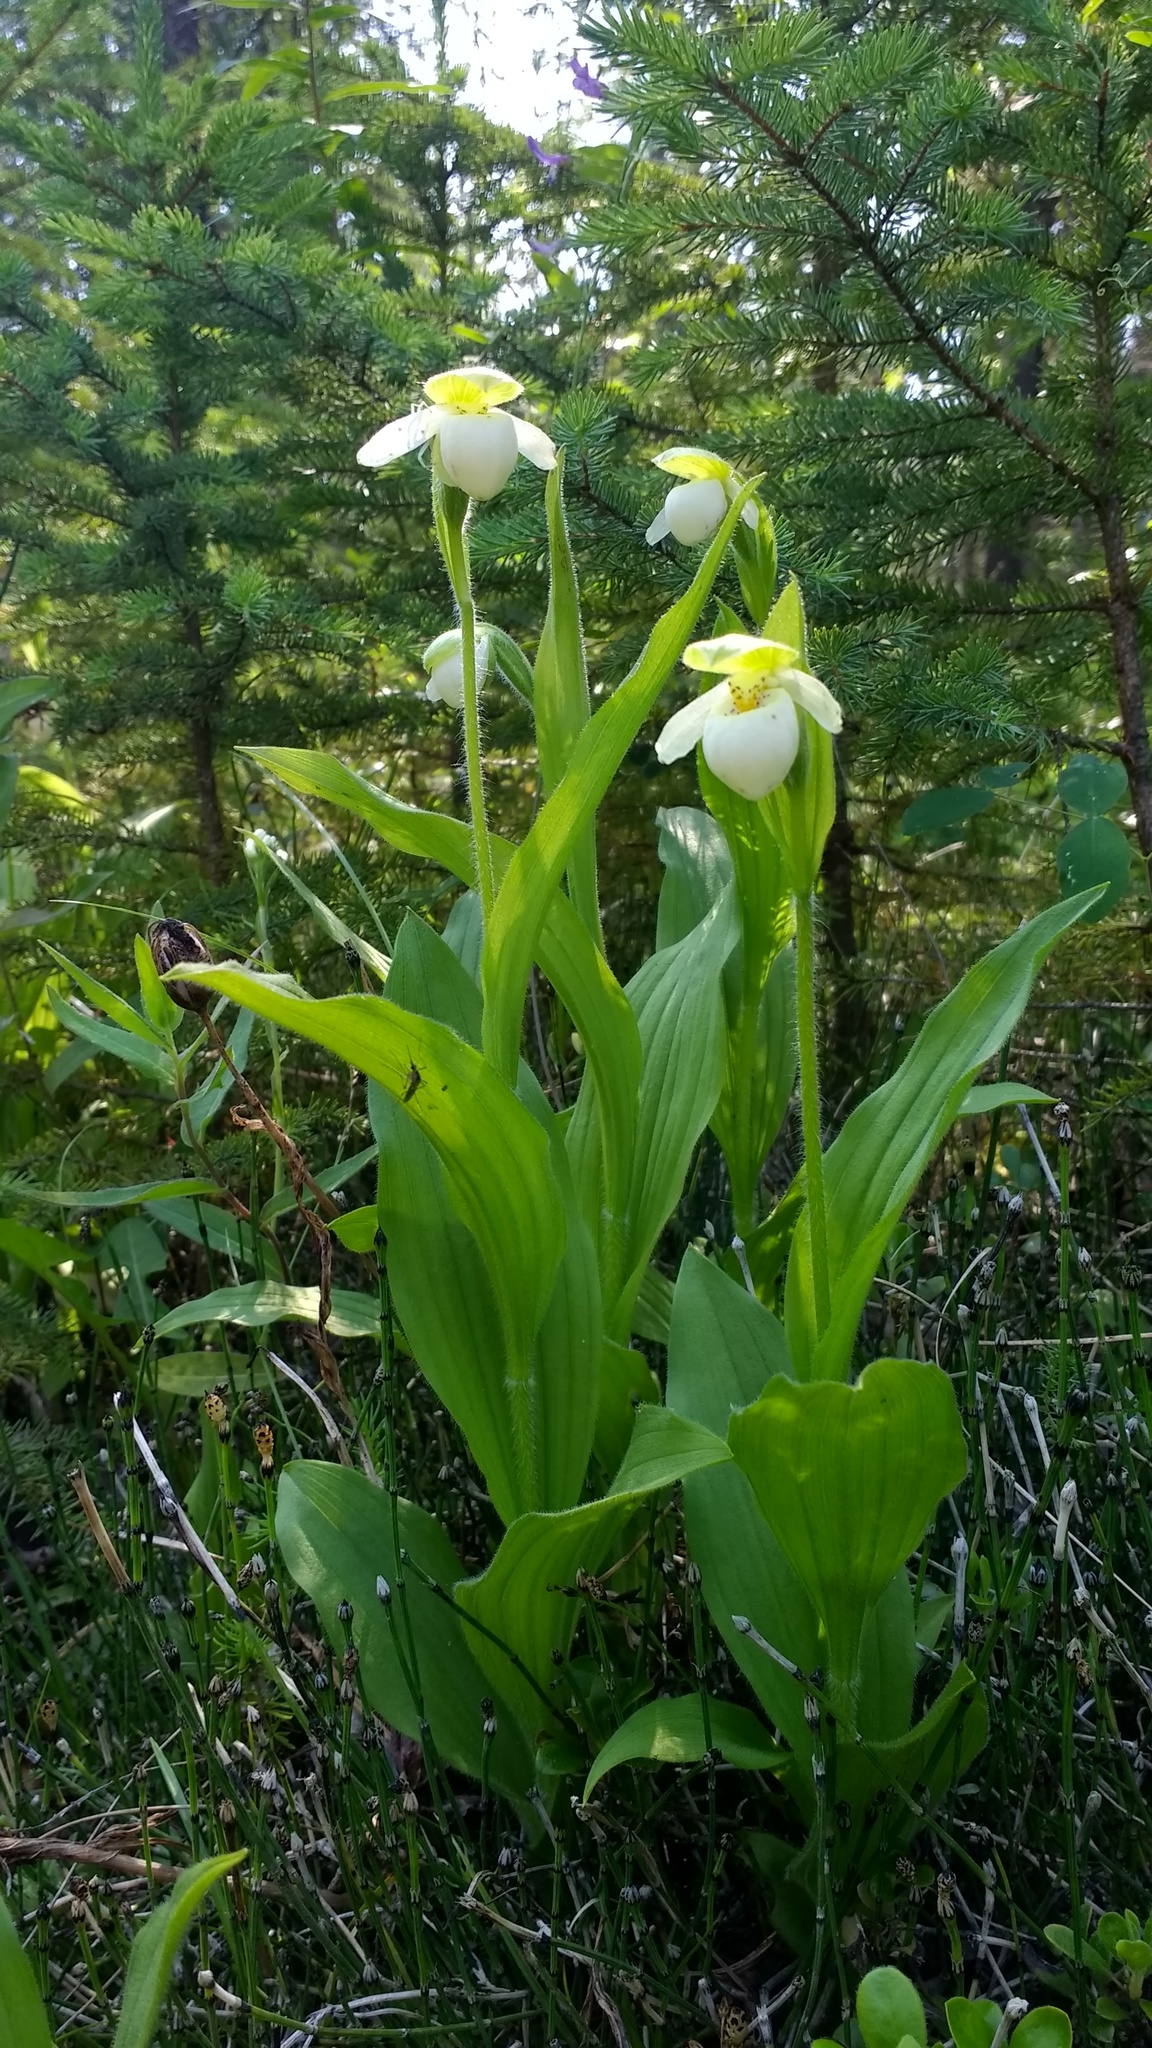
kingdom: Plantae
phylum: Tracheophyta
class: Liliopsida
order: Asparagales
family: Orchidaceae
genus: Cypripedium
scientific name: Cypripedium passerinum
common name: Sparrow's-egg lady's-slipper
